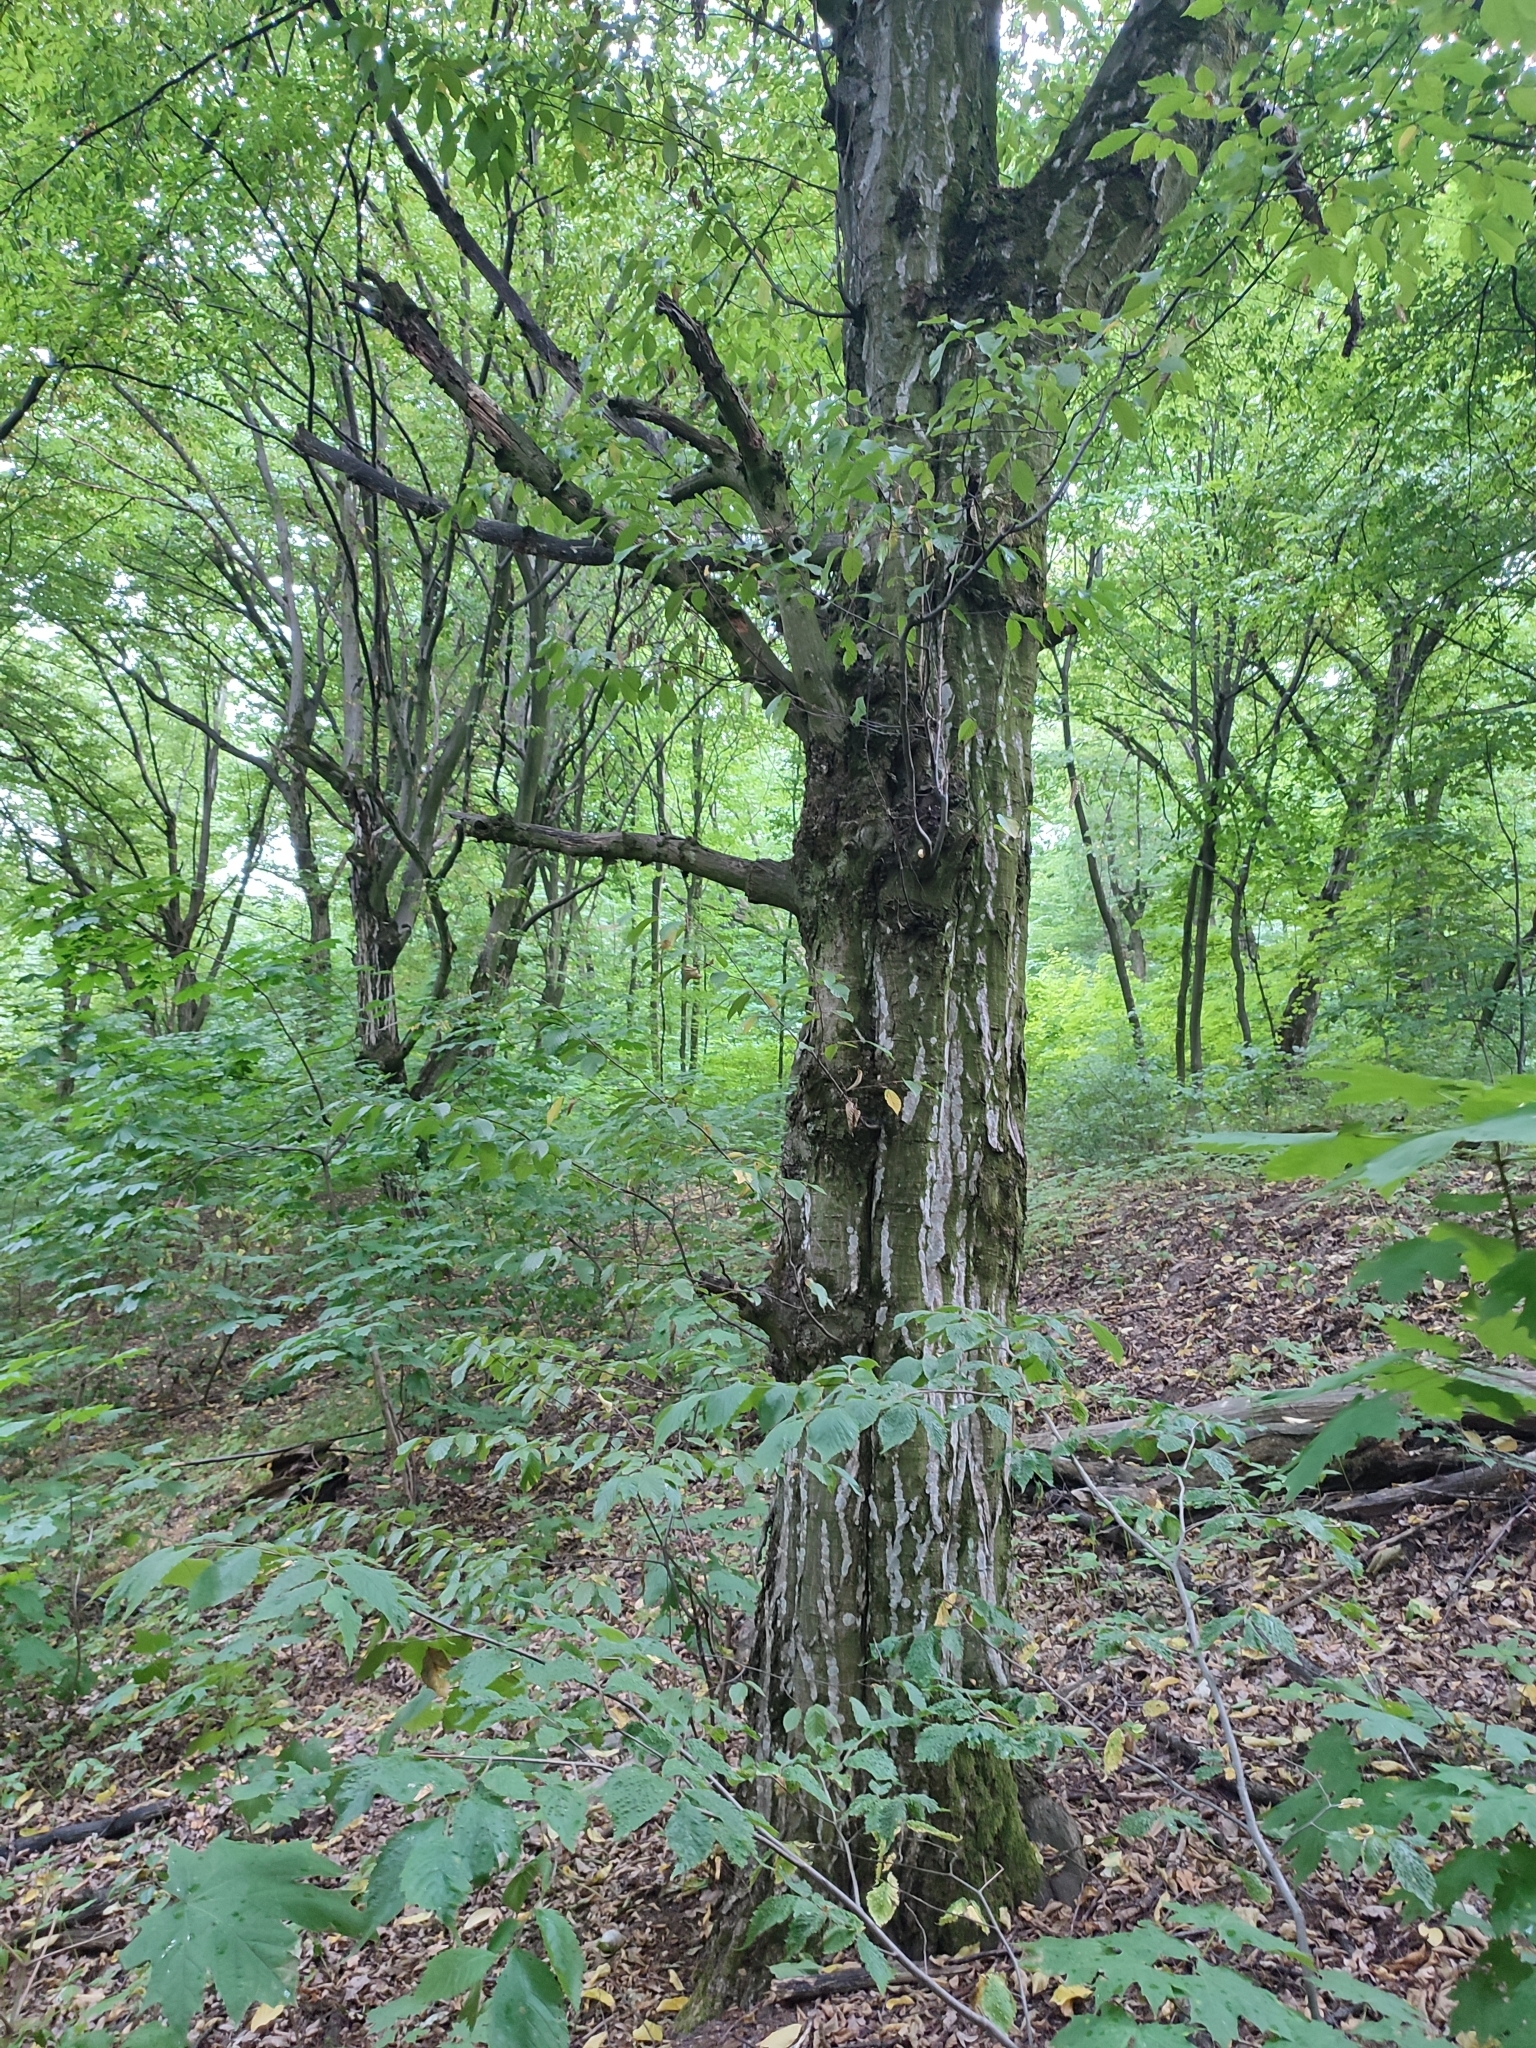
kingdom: Plantae
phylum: Tracheophyta
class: Magnoliopsida
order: Fagales
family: Betulaceae
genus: Carpinus
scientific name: Carpinus betulus
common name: Hornbeam
